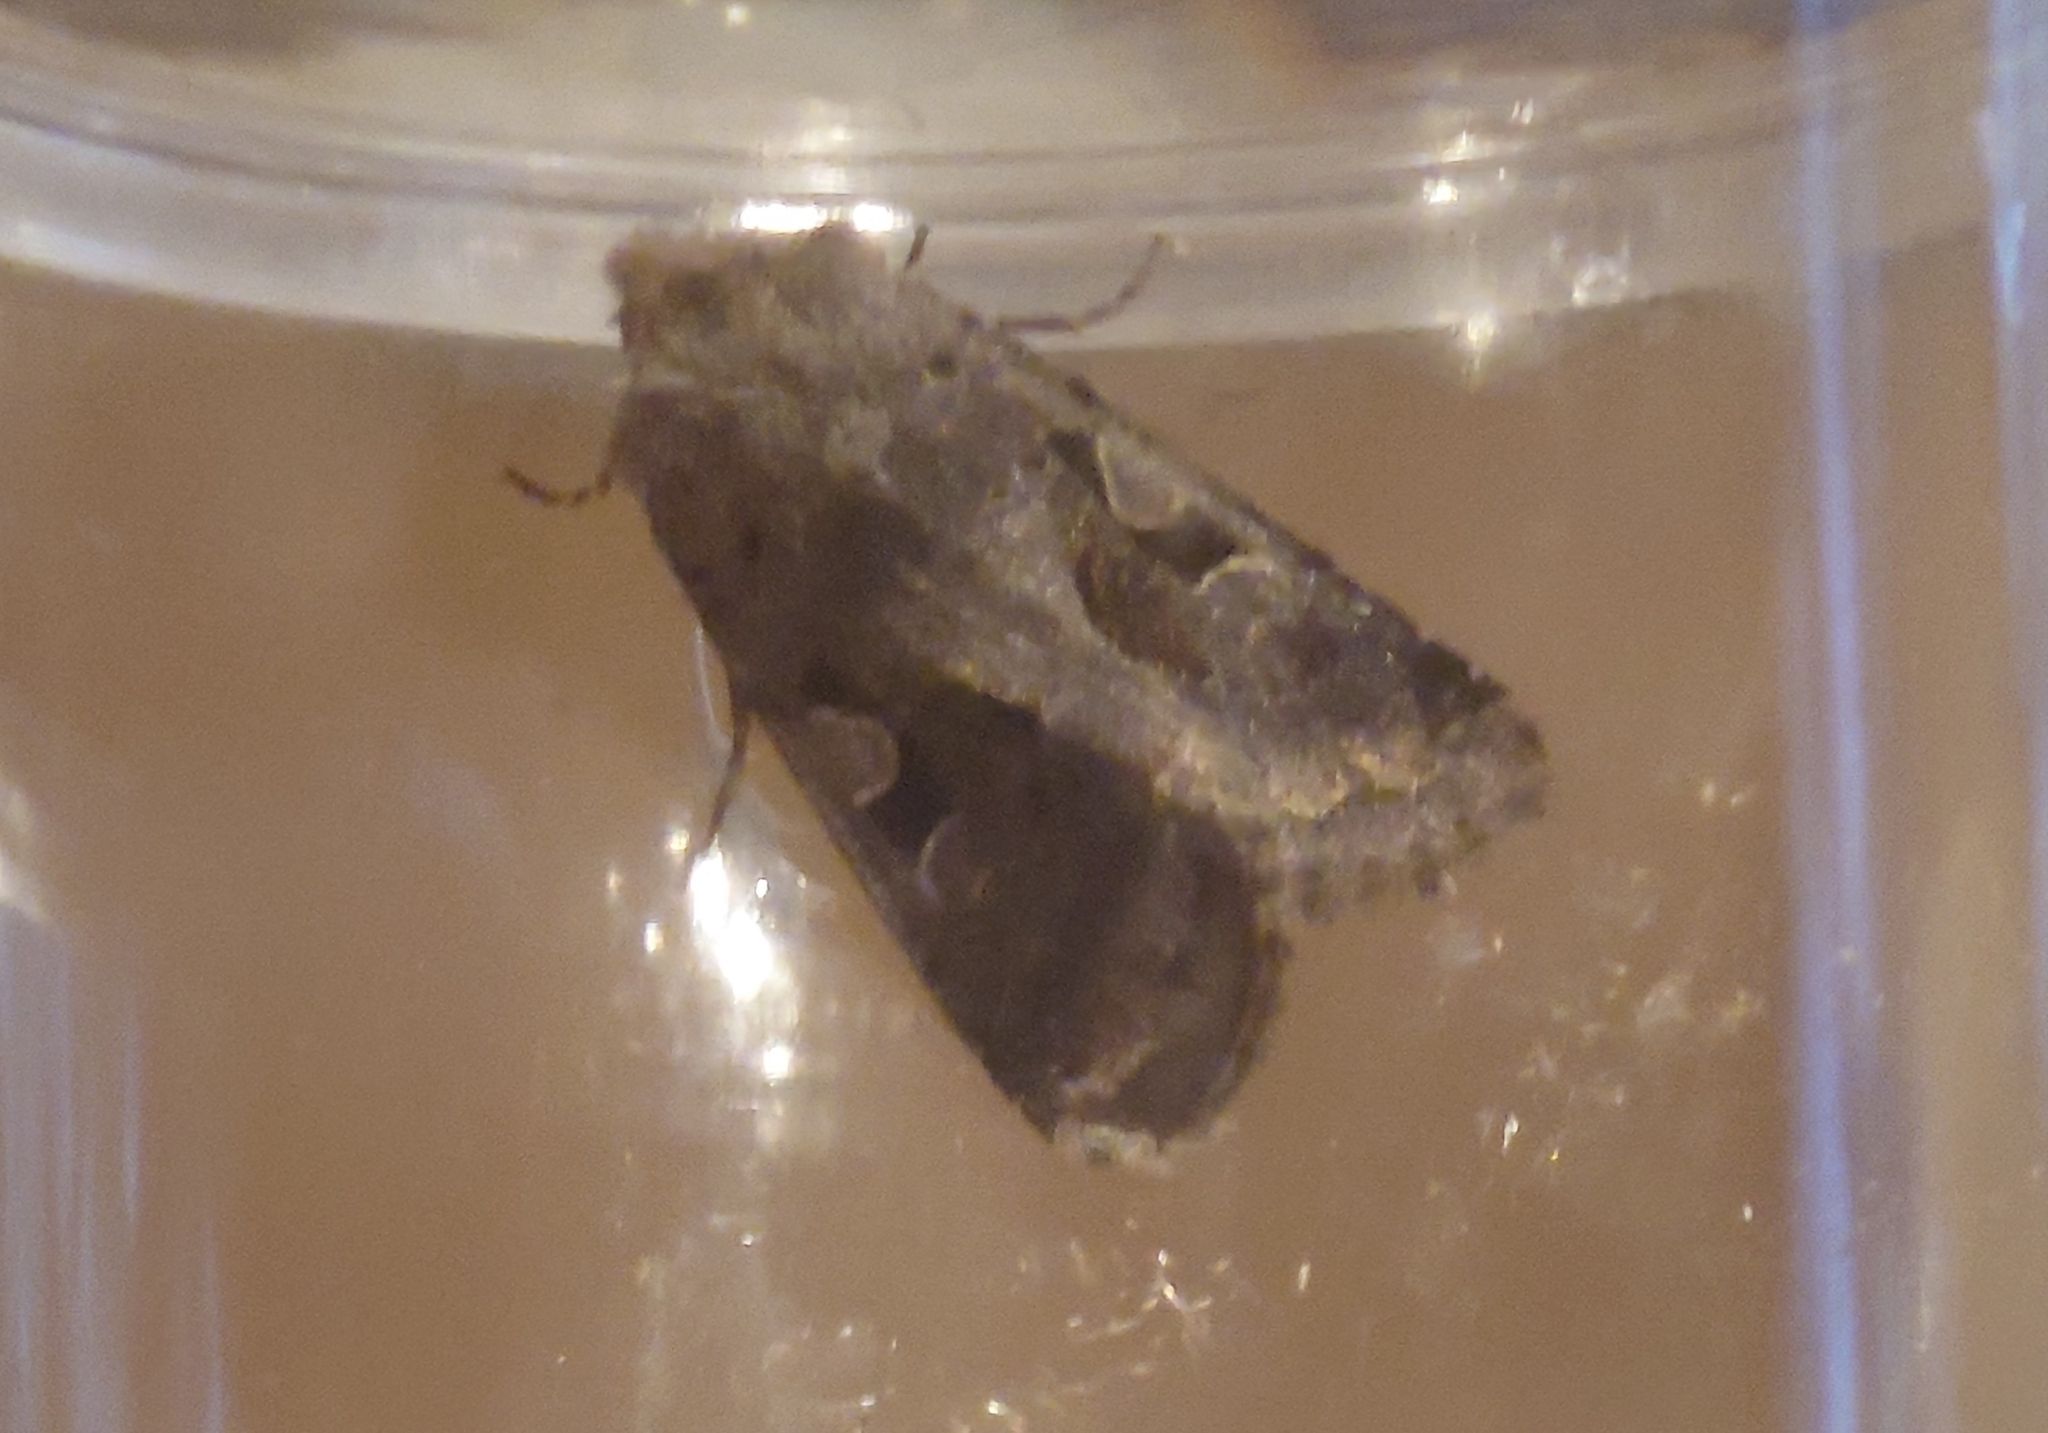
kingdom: Animalia
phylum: Arthropoda
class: Insecta
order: Lepidoptera
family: Noctuidae
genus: Orthosia
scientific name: Orthosia gothica
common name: Hebrew character
